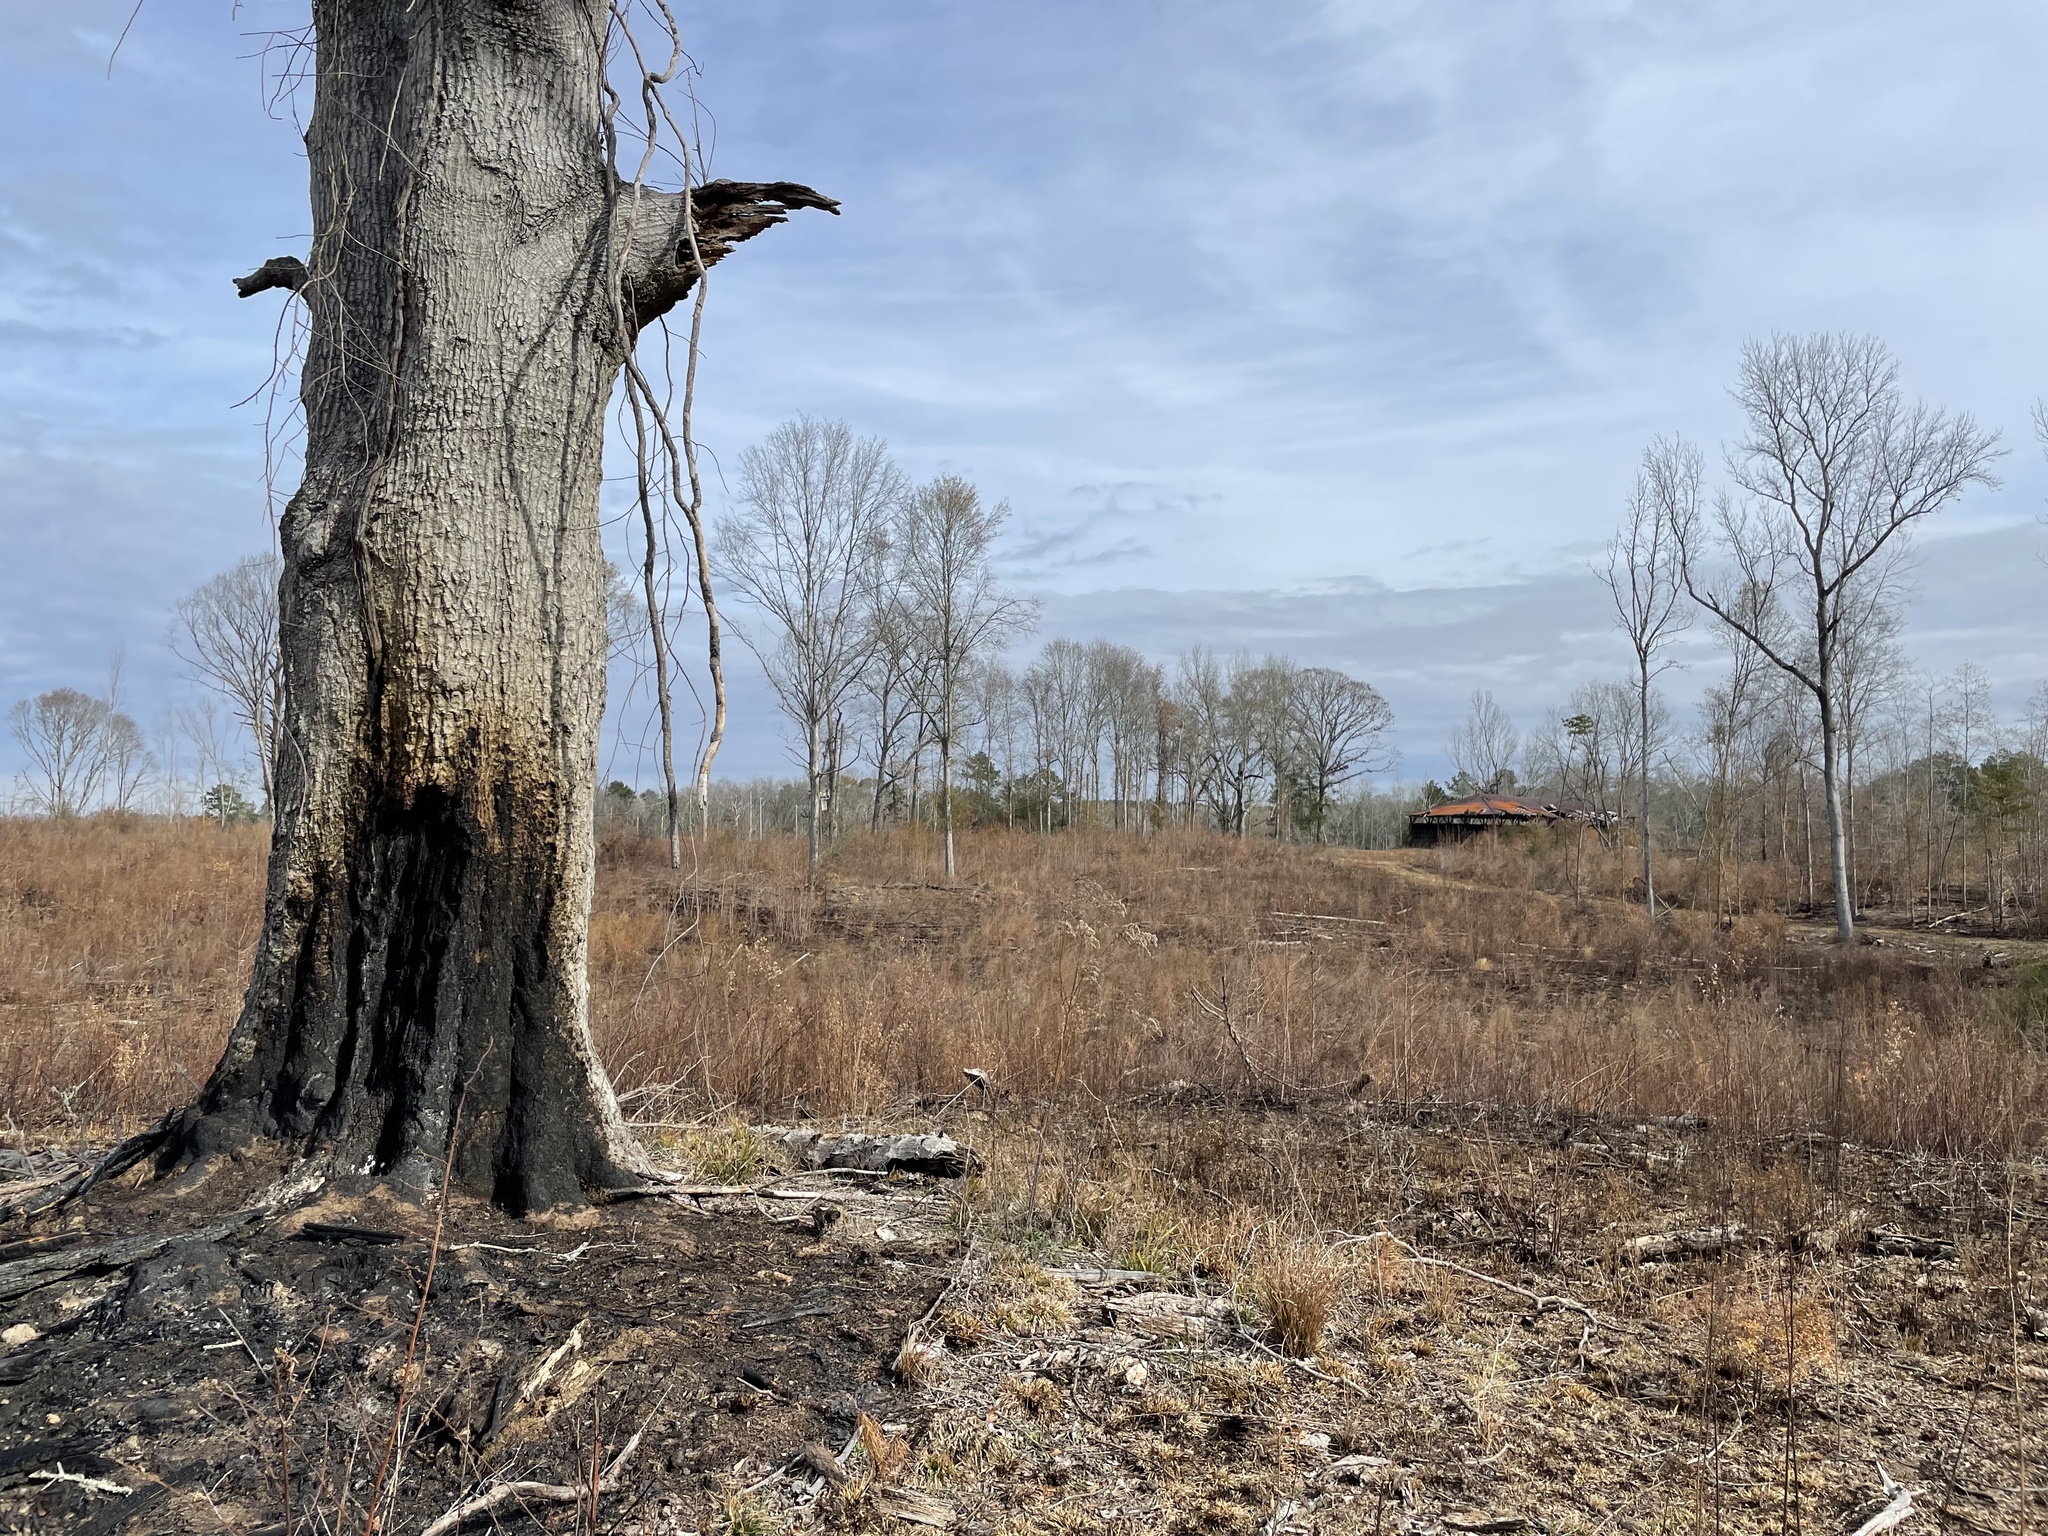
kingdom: Plantae
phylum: Tracheophyta
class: Magnoliopsida
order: Fagales
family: Fagaceae
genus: Quercus
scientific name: Quercus nigra
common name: Water oak
